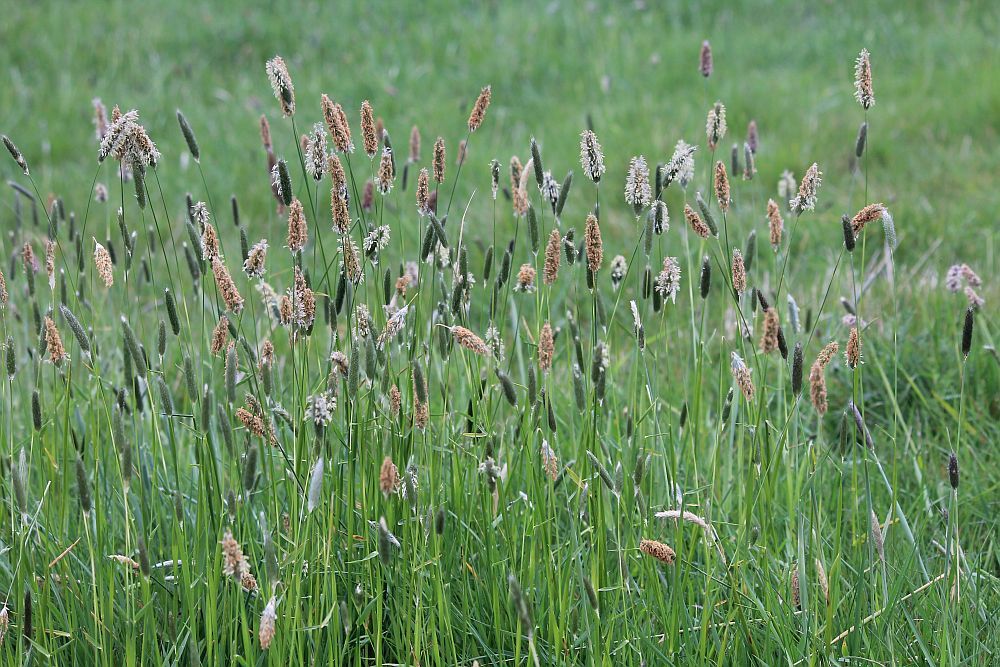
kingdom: Plantae
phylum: Tracheophyta
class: Liliopsida
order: Poales
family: Poaceae
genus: Alopecurus
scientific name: Alopecurus pratensis
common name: Meadow foxtail
